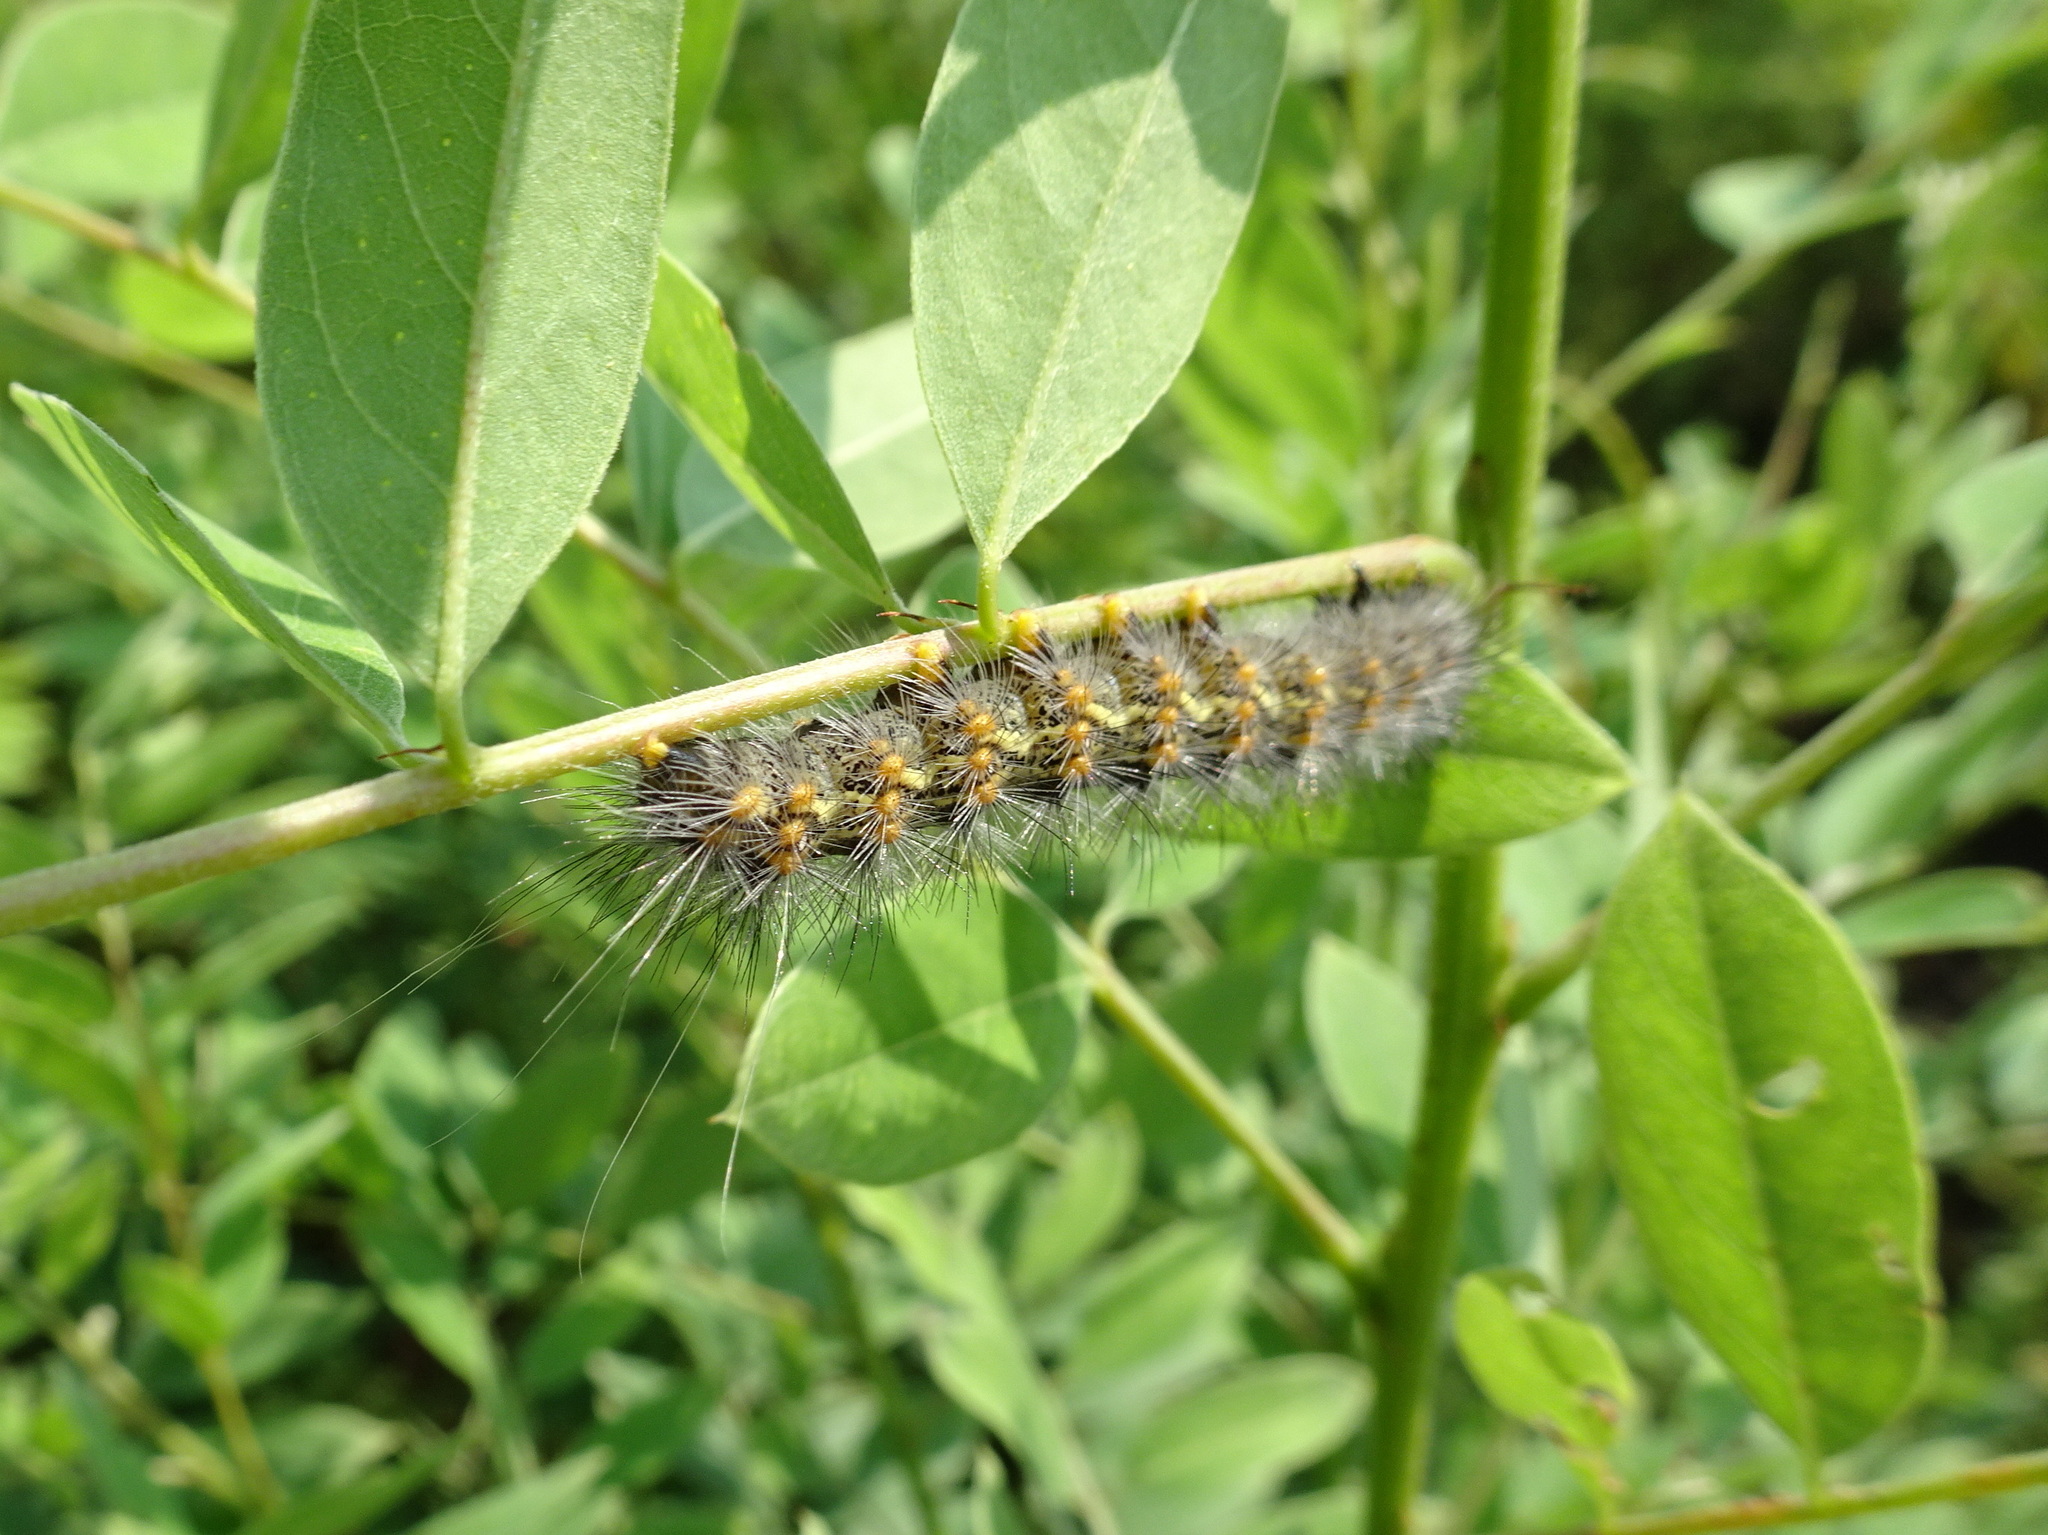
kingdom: Animalia
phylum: Arthropoda
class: Insecta
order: Lepidoptera
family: Erebidae
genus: Estigmene
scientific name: Estigmene acrea
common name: Salt marsh moth
